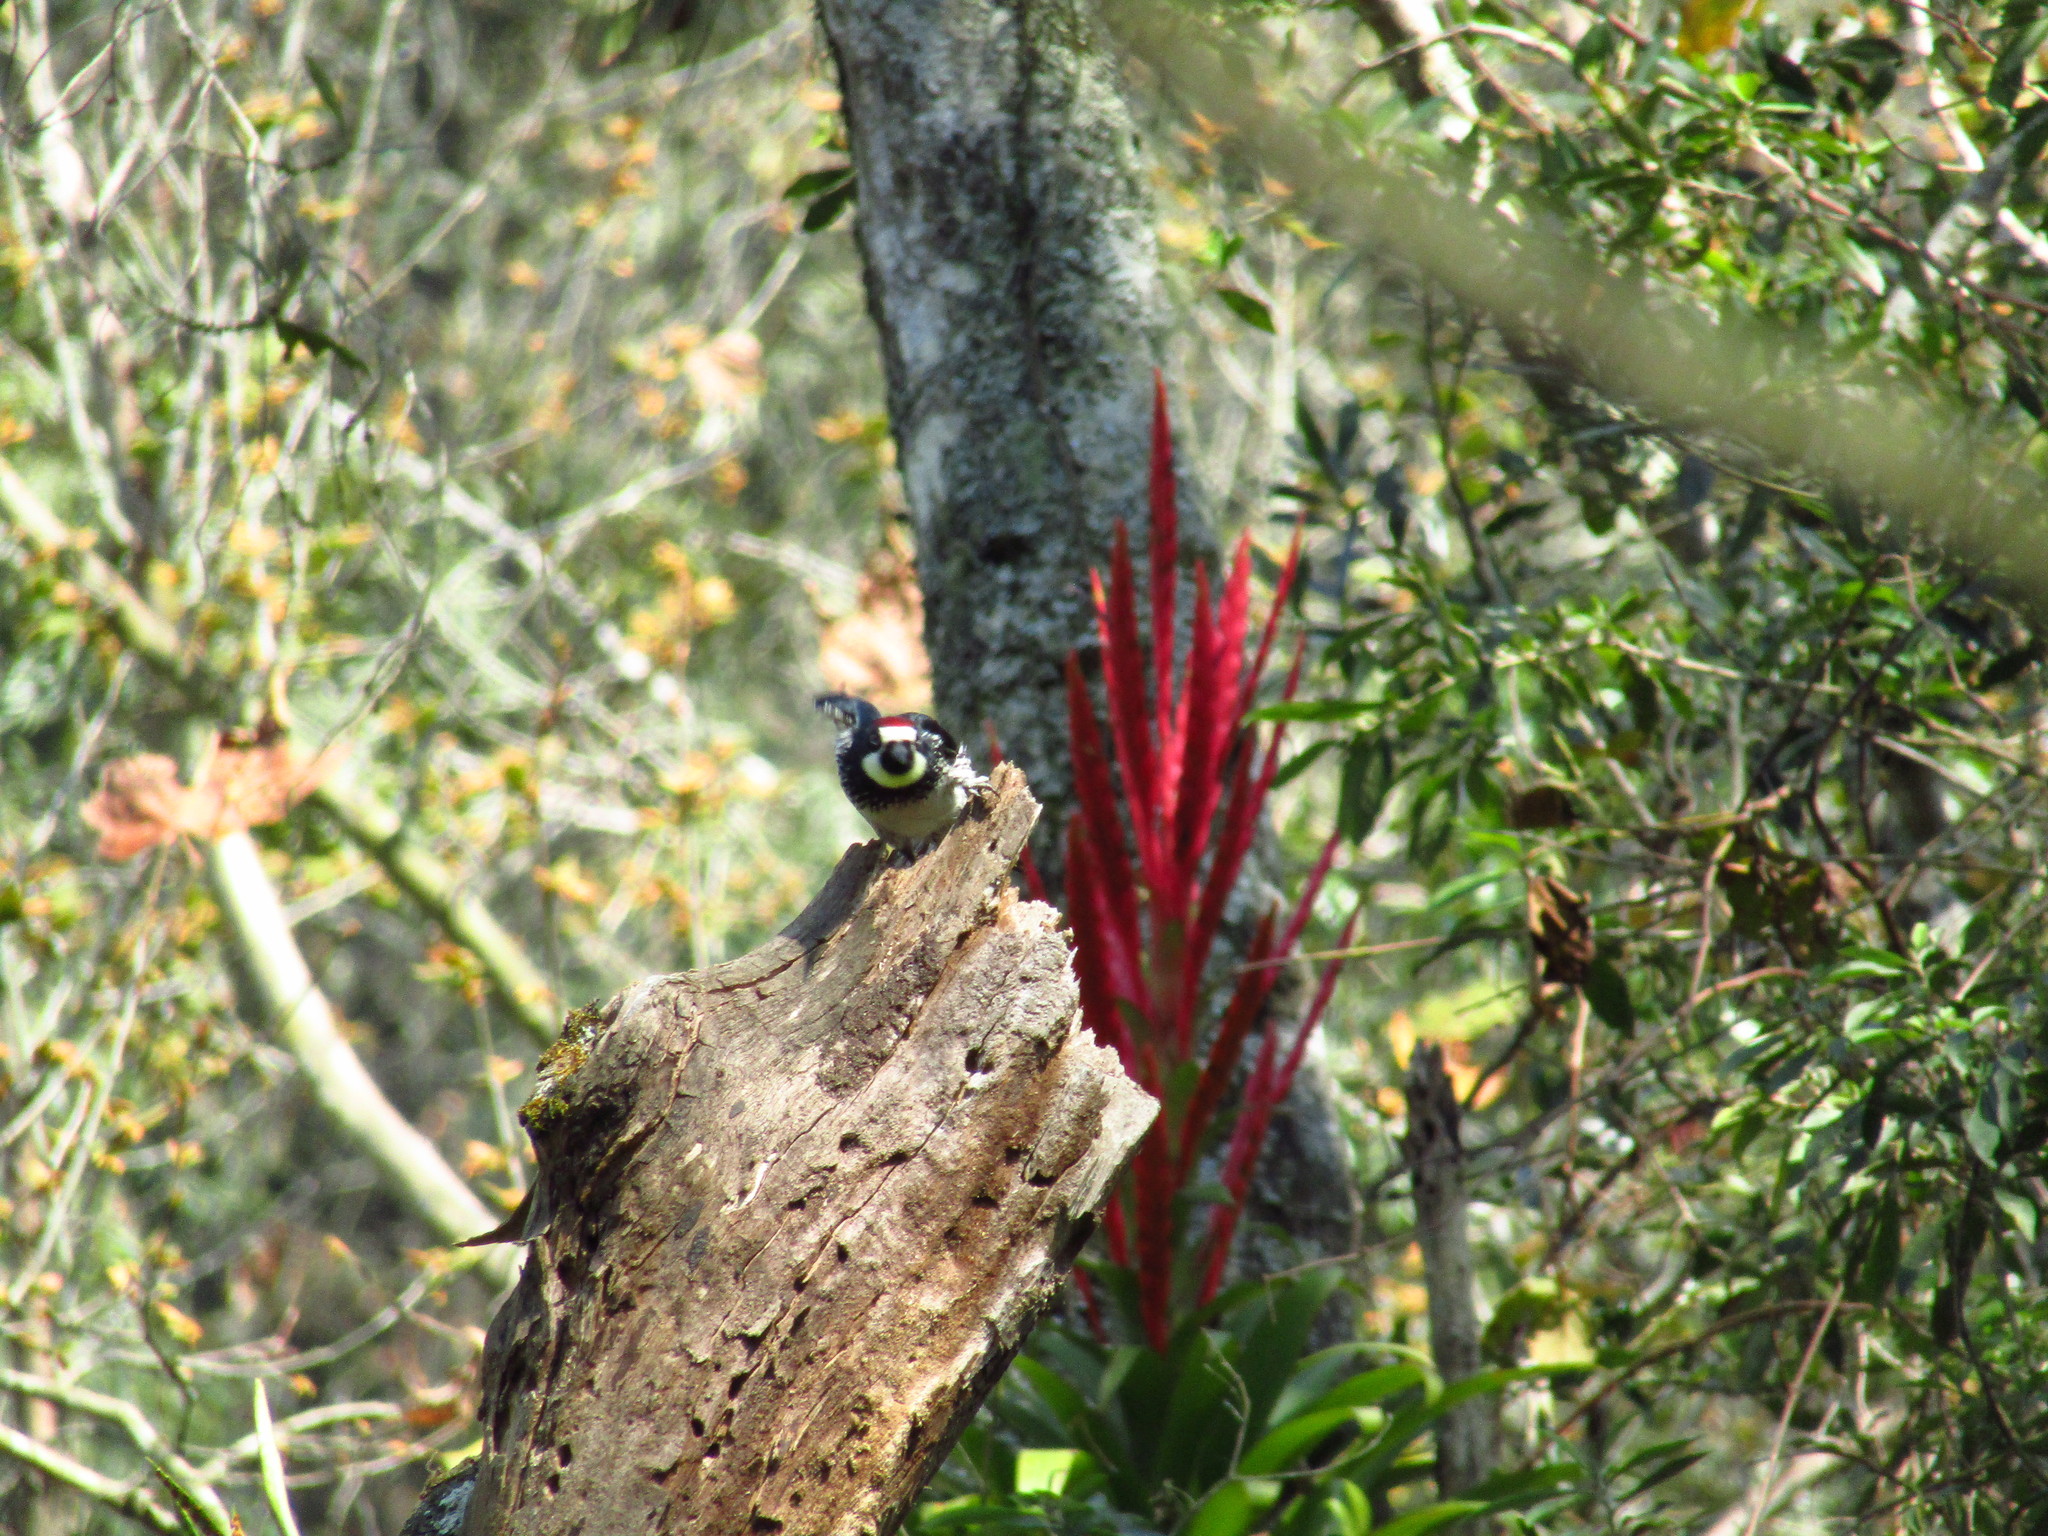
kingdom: Animalia
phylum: Chordata
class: Aves
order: Piciformes
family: Picidae
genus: Melanerpes
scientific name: Melanerpes formicivorus
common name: Acorn woodpecker
